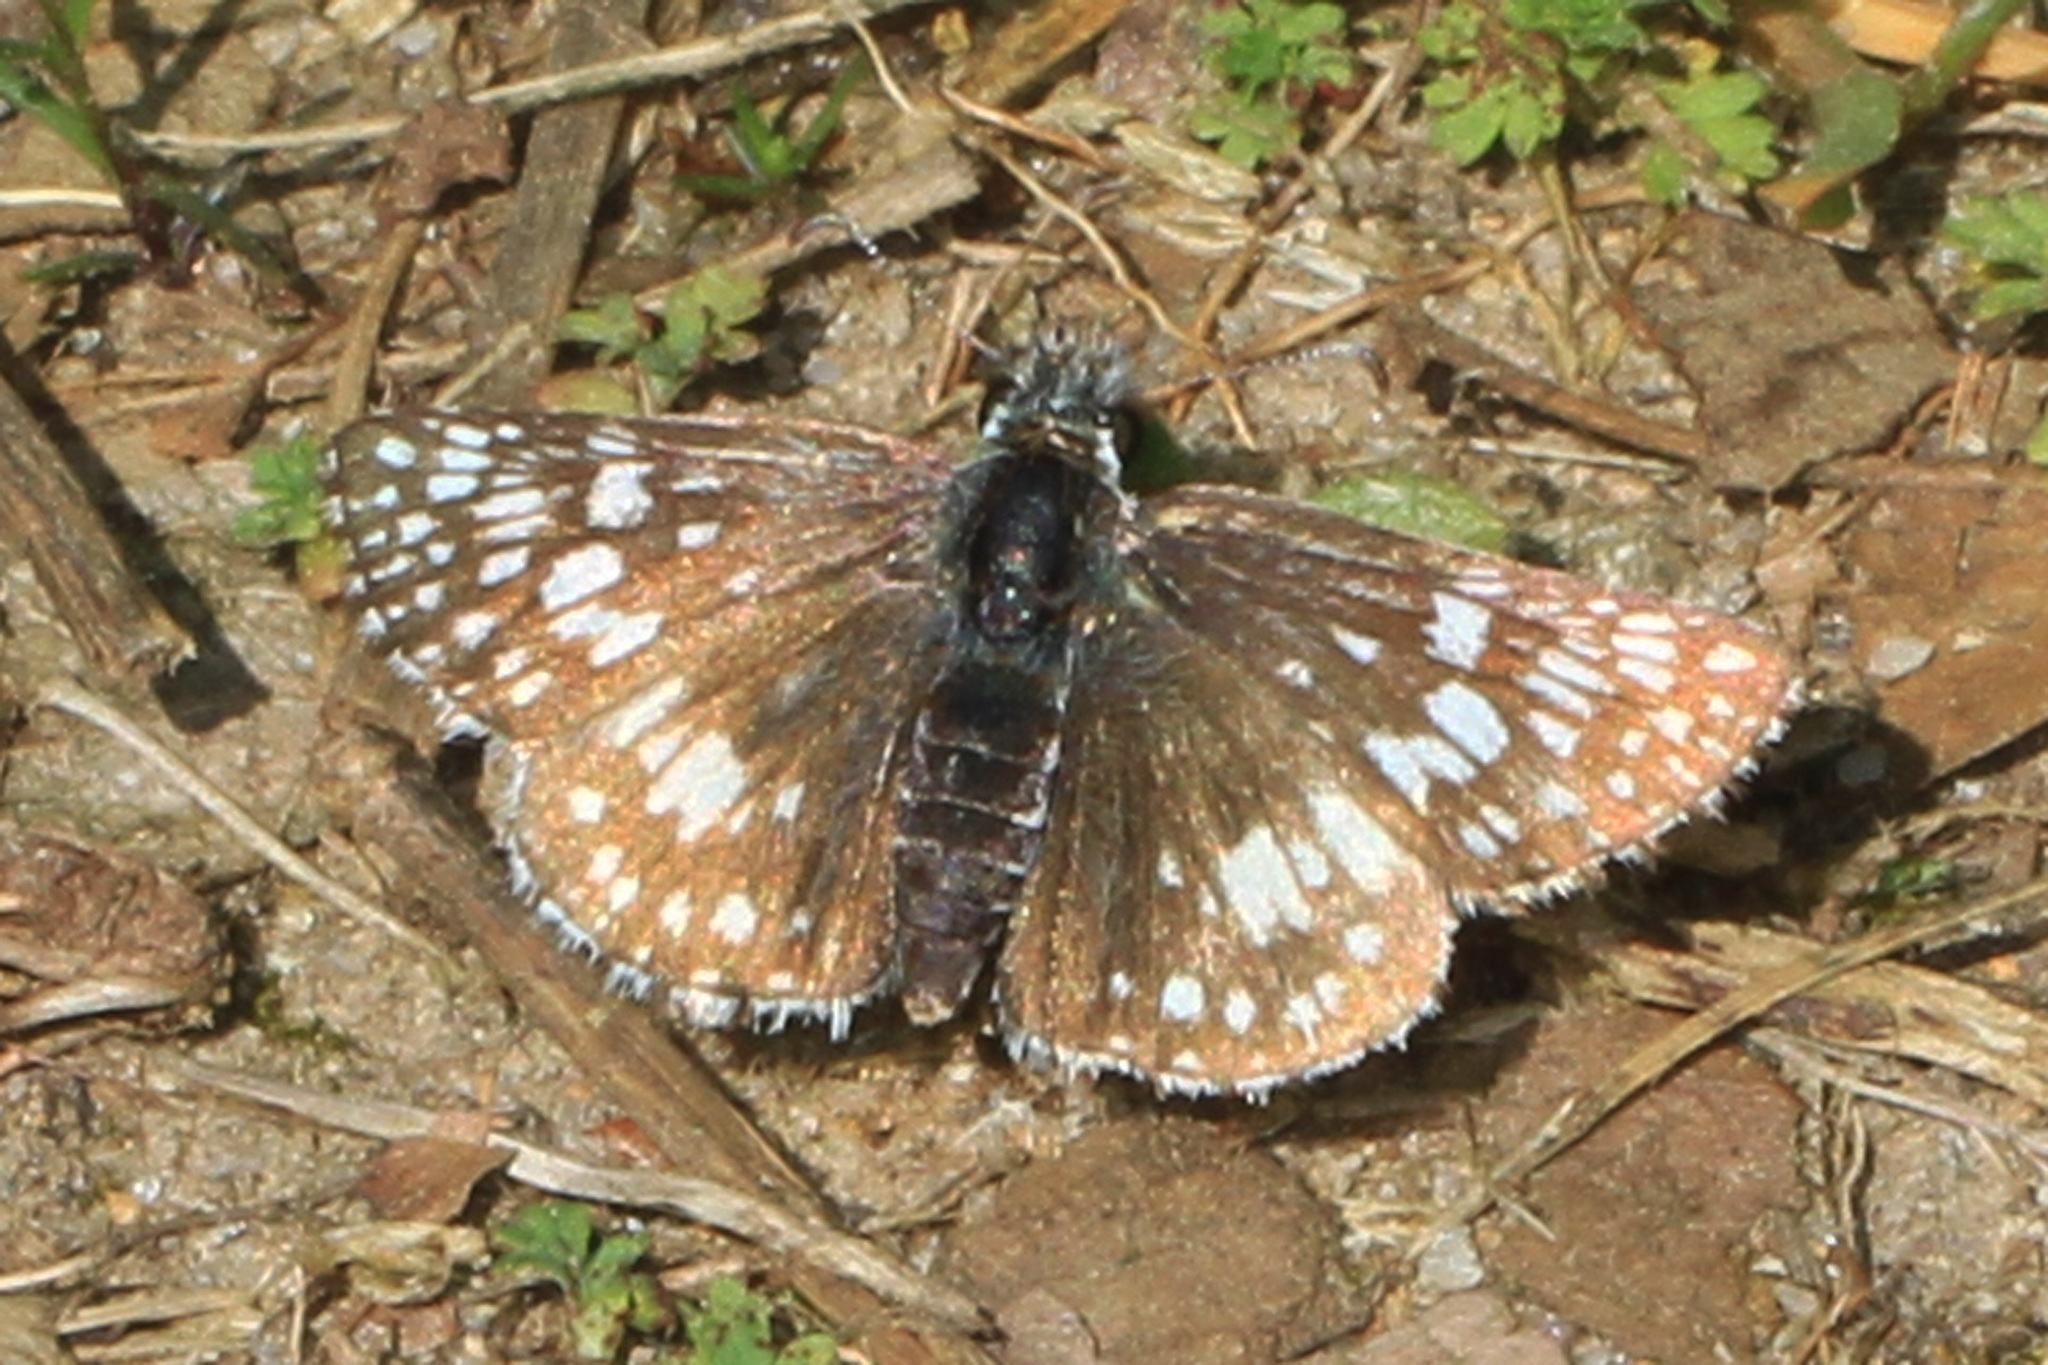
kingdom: Animalia
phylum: Arthropoda
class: Insecta
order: Lepidoptera
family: Hesperiidae
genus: Burnsius
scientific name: Burnsius communis
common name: Common checkered-skipper
